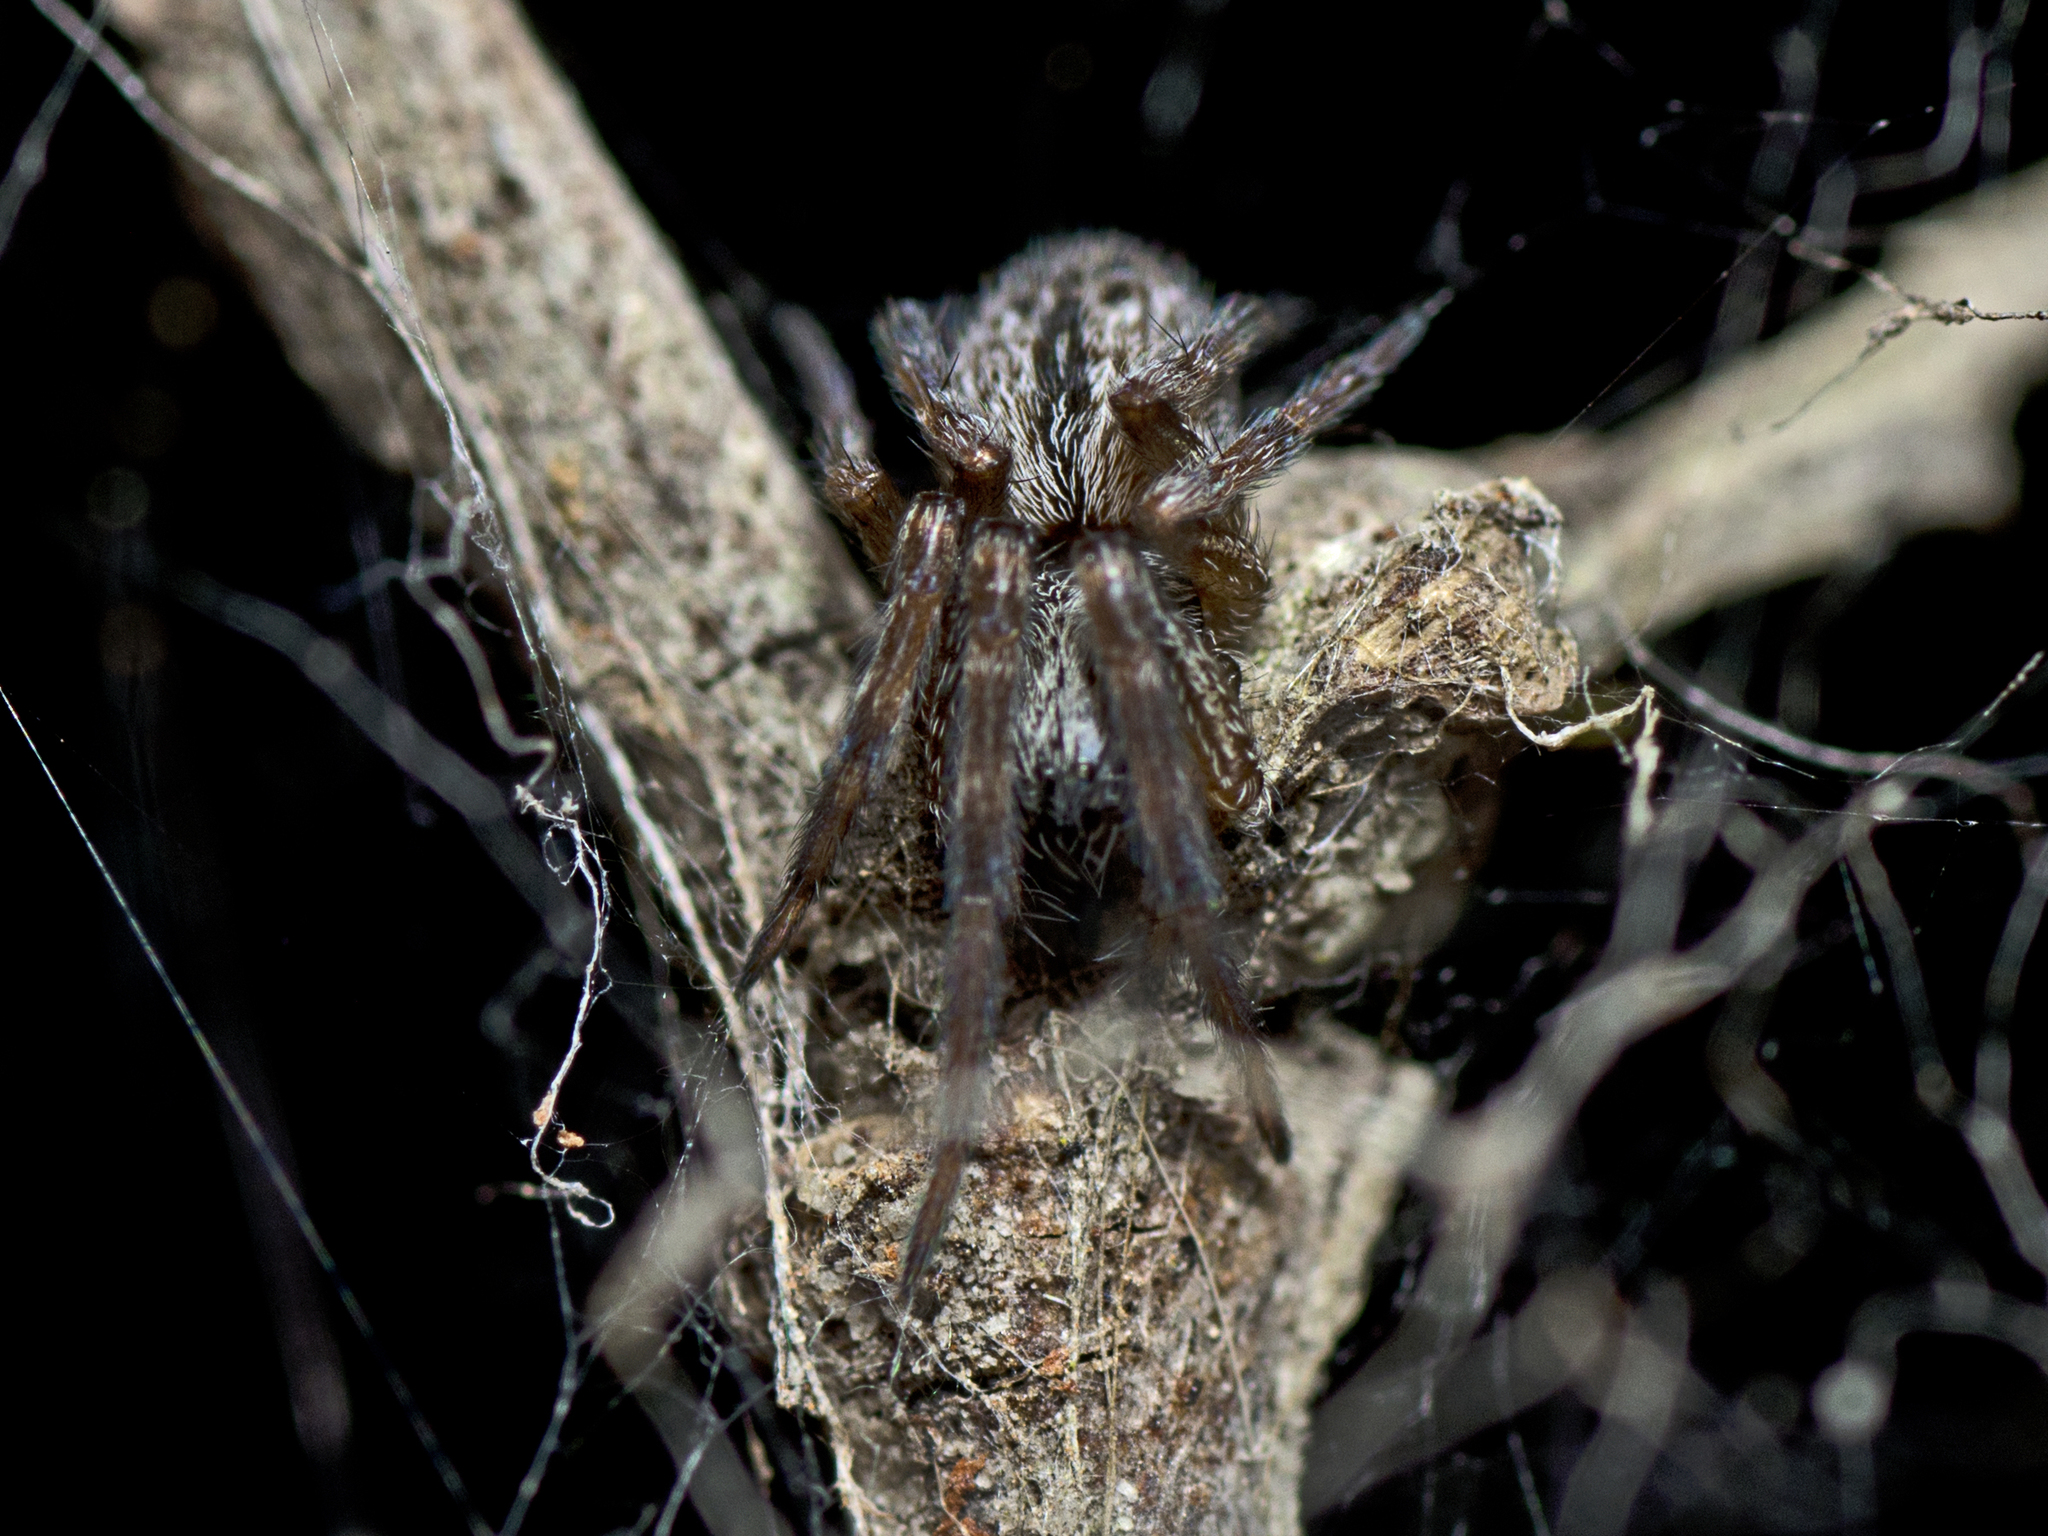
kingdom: Animalia
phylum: Arthropoda
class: Arachnida
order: Araneae
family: Desidae
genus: Badumna
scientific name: Badumna longinqua
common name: Gray house spider
